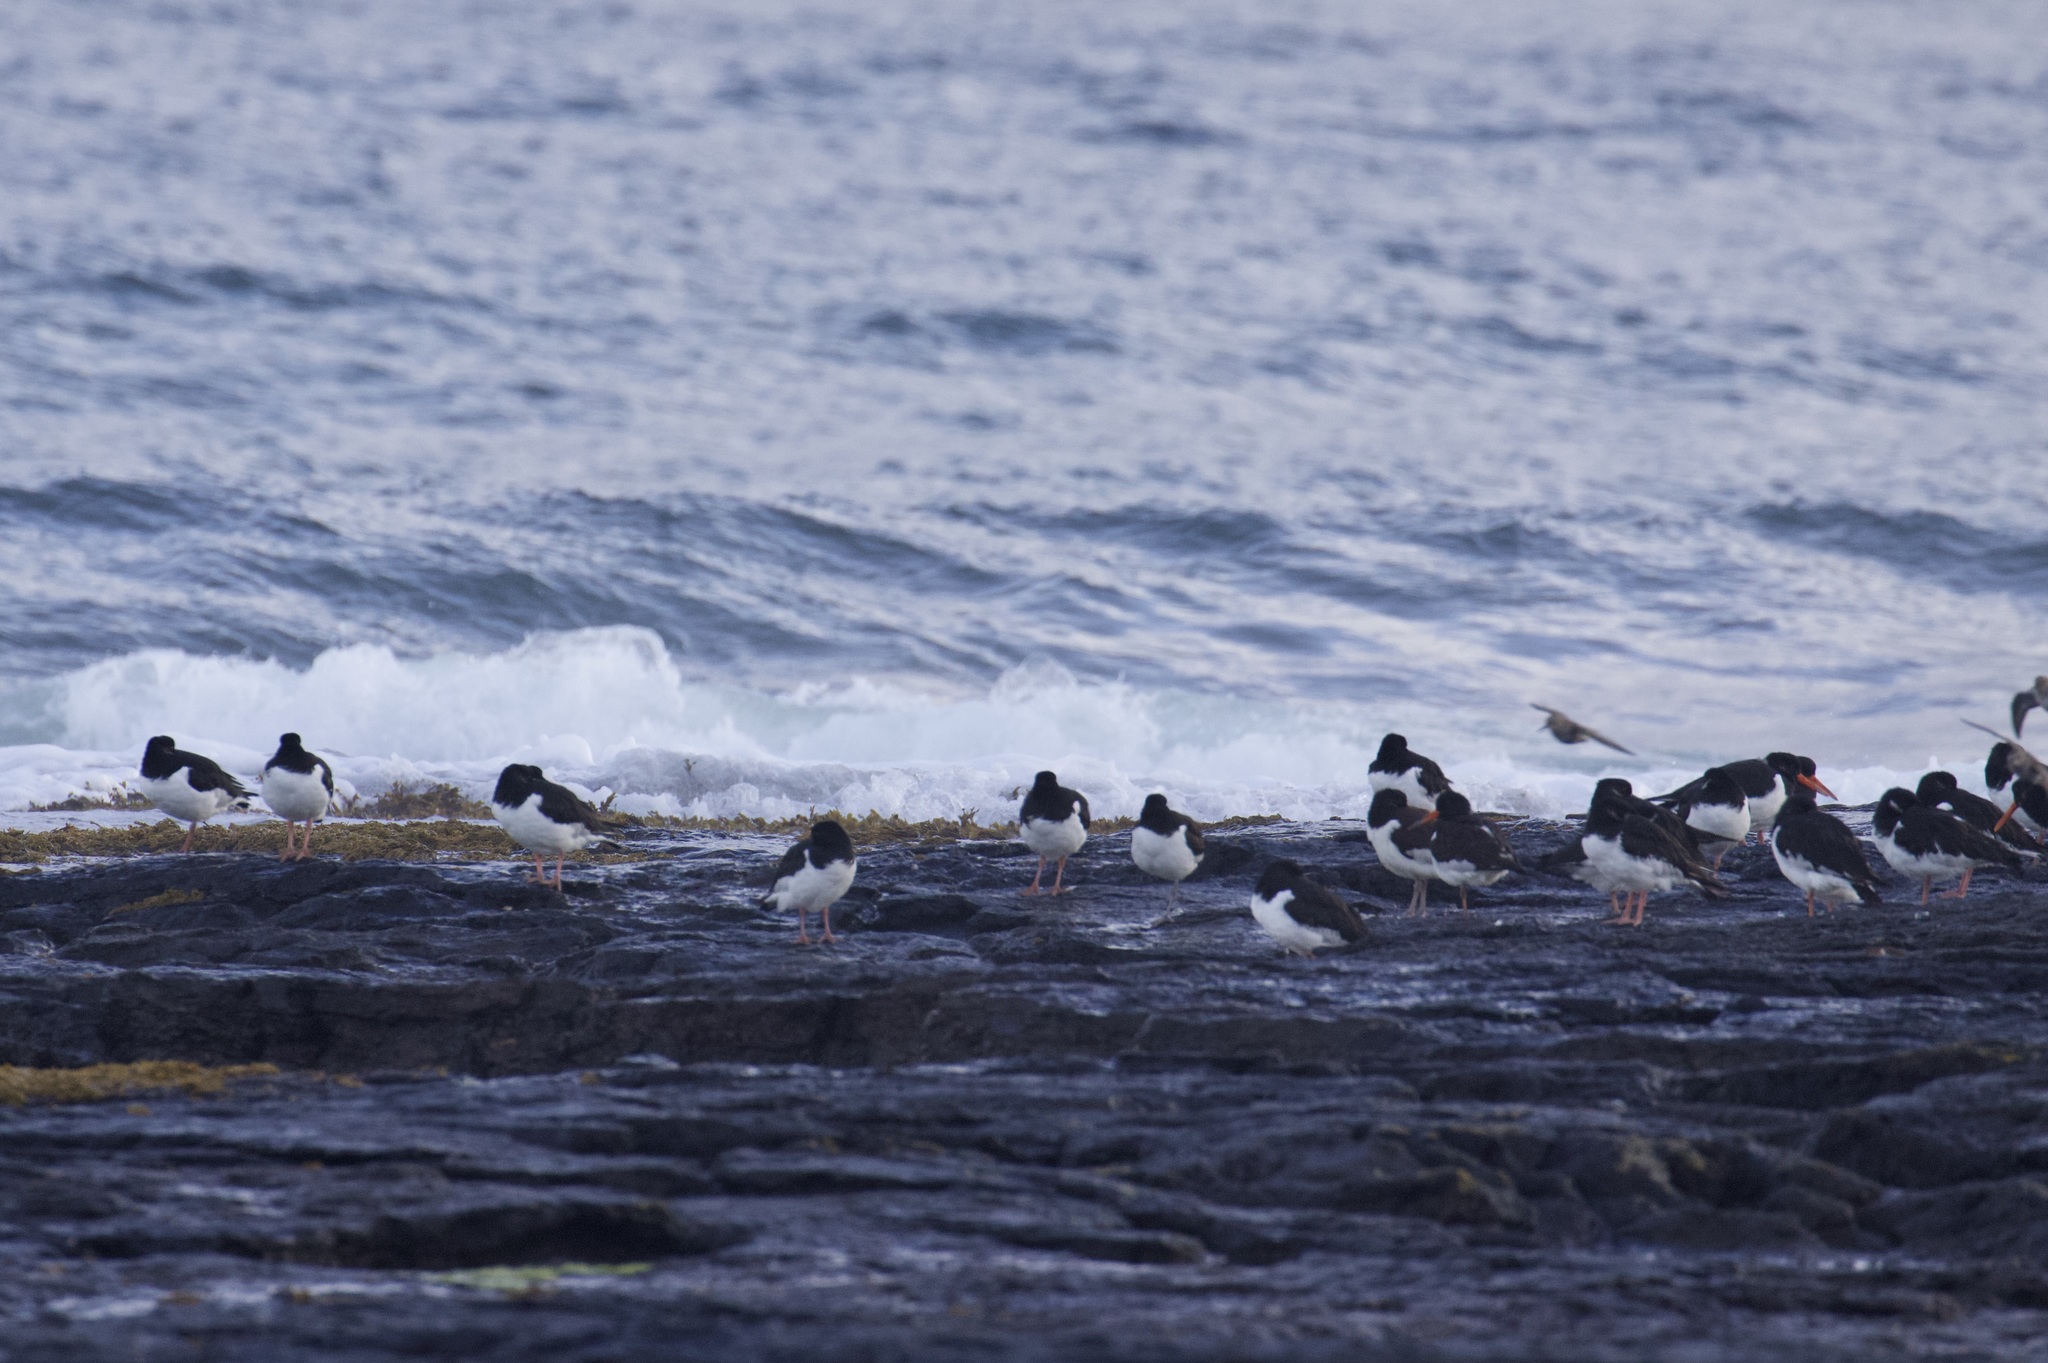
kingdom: Animalia
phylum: Chordata
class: Aves
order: Charadriiformes
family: Haematopodidae
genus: Haematopus
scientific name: Haematopus ostralegus
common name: Eurasian oystercatcher
